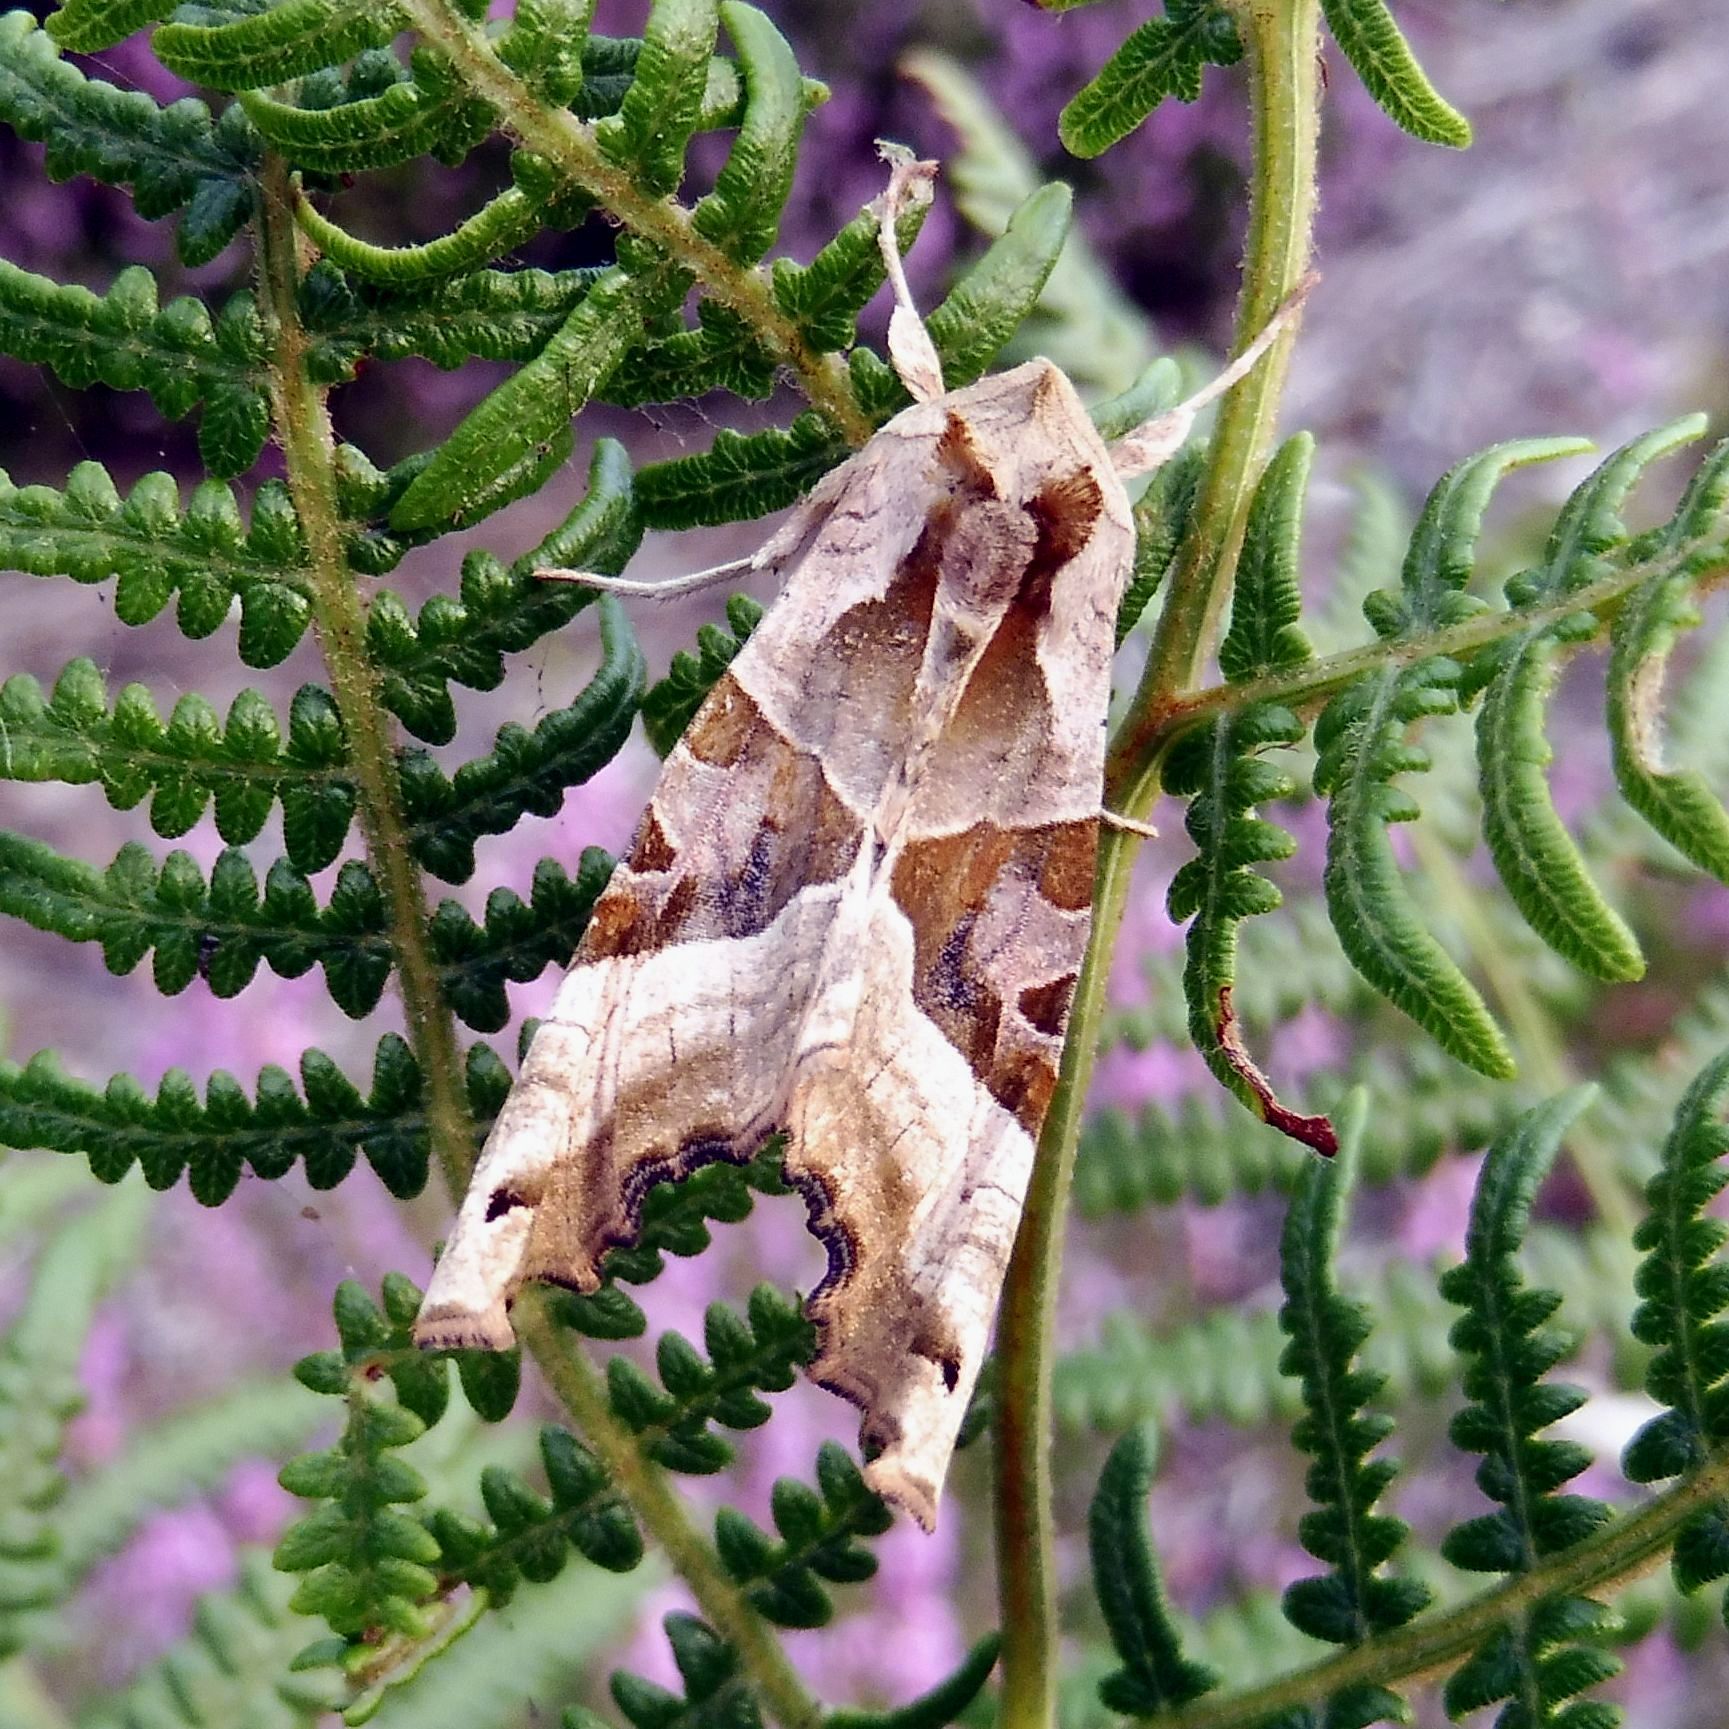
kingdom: Animalia
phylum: Arthropoda
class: Insecta
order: Lepidoptera
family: Noctuidae
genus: Phlogophora
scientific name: Phlogophora meticulosa
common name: Angle shades
